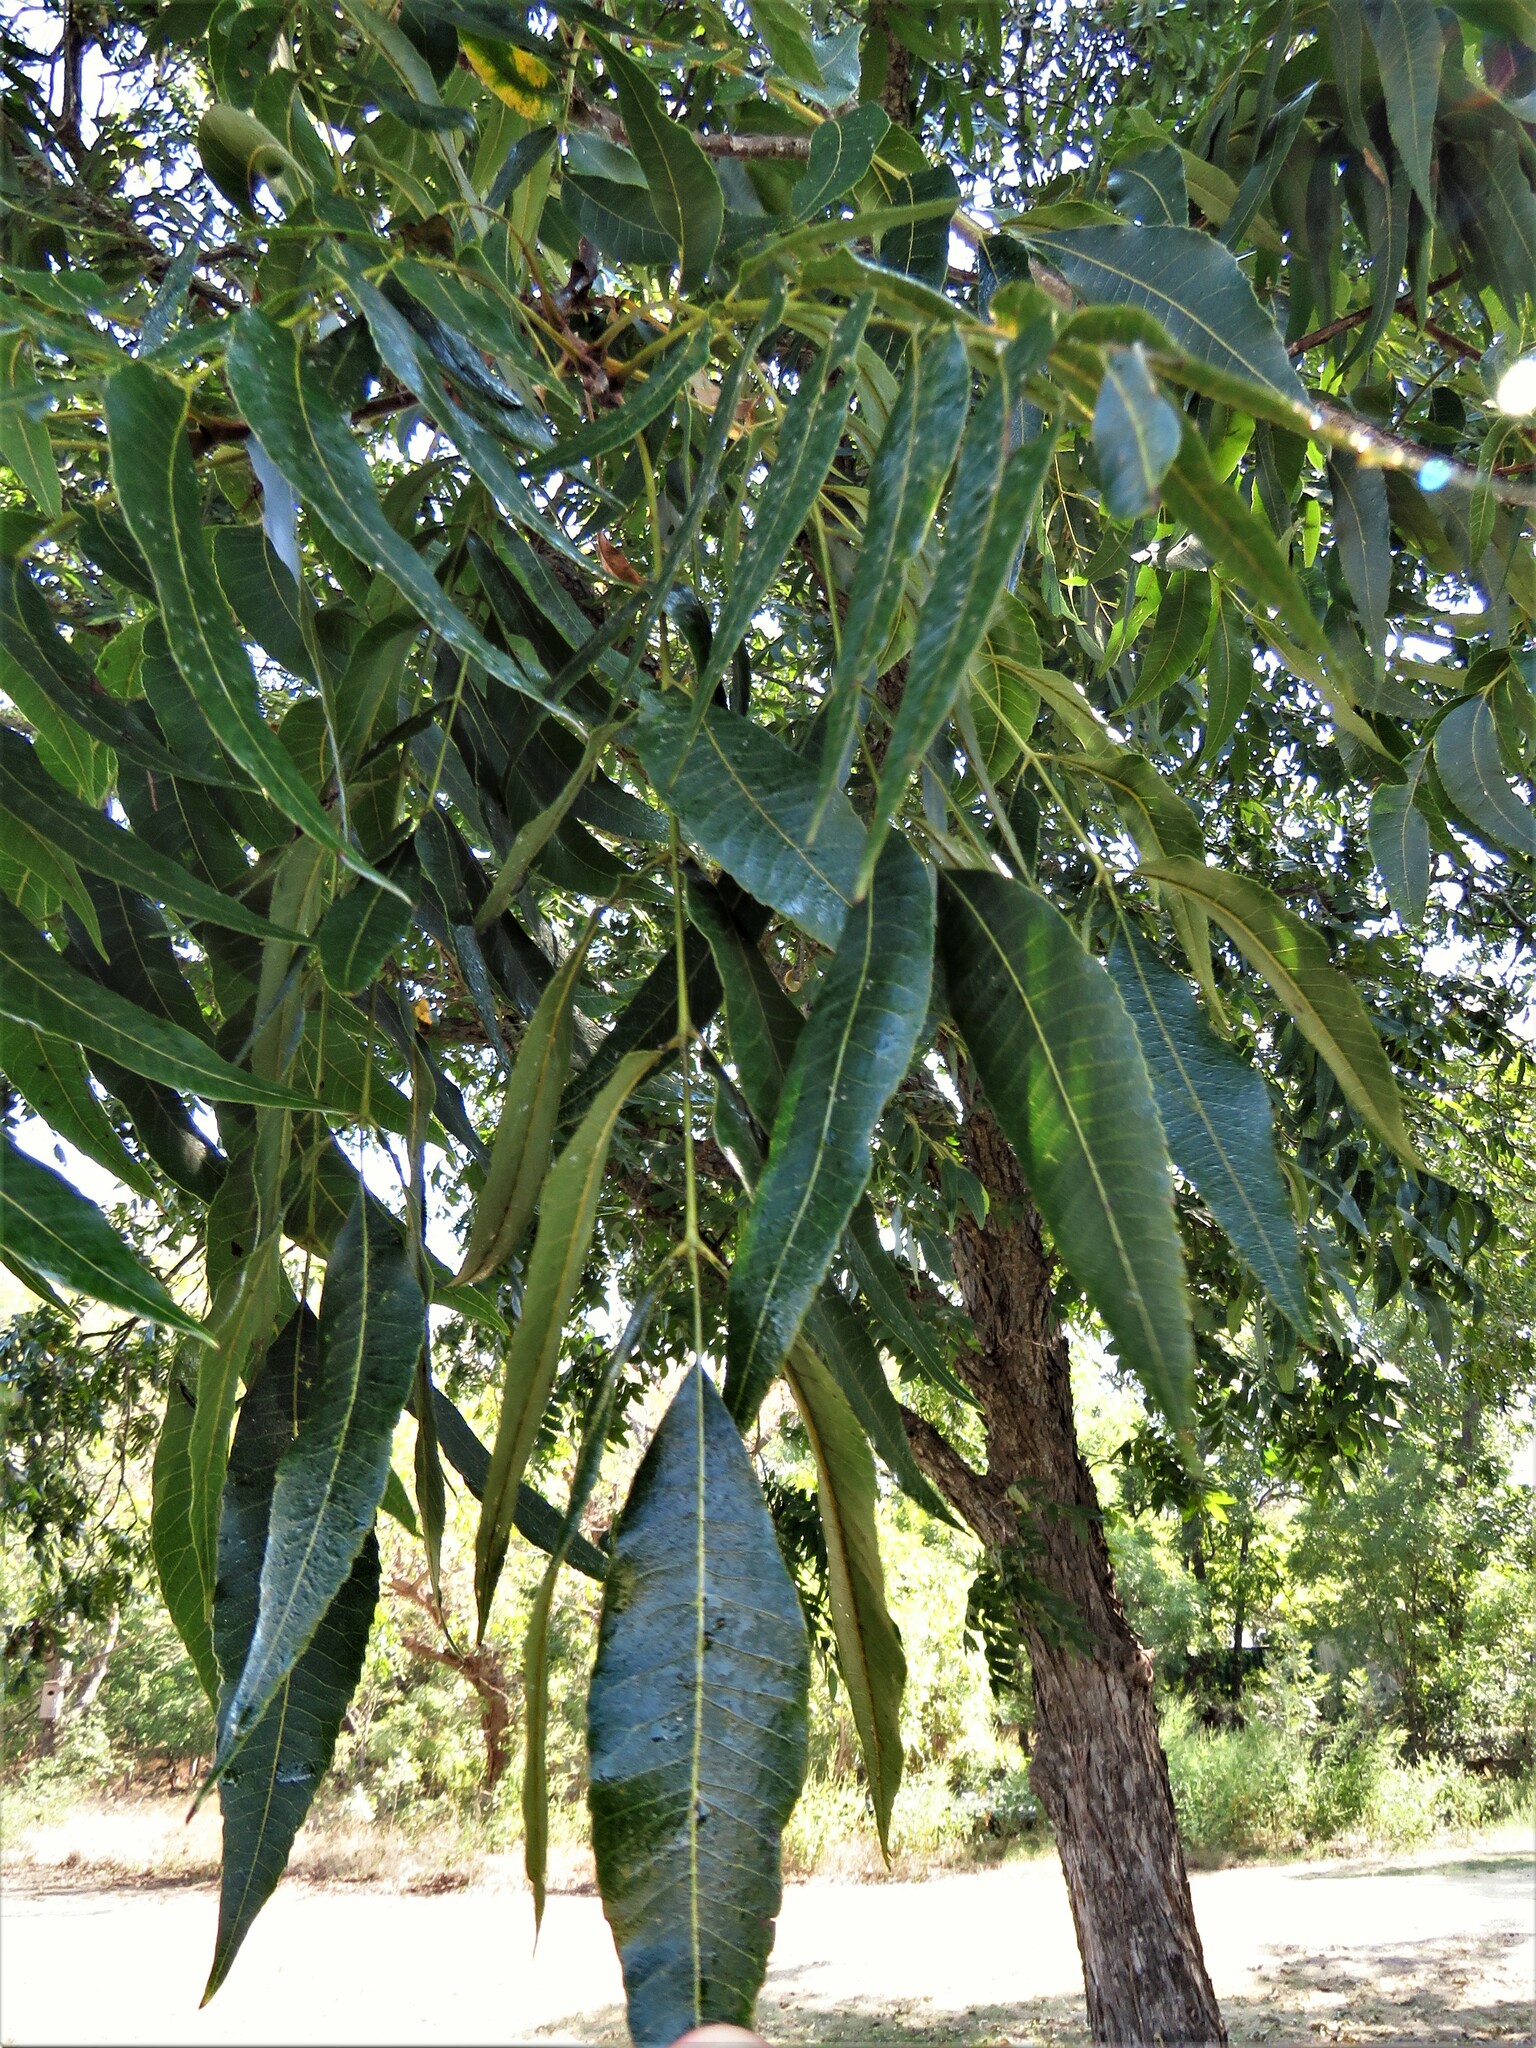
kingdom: Plantae
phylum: Tracheophyta
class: Magnoliopsida
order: Fagales
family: Juglandaceae
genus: Carya
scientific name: Carya illinoinensis
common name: Pecan
